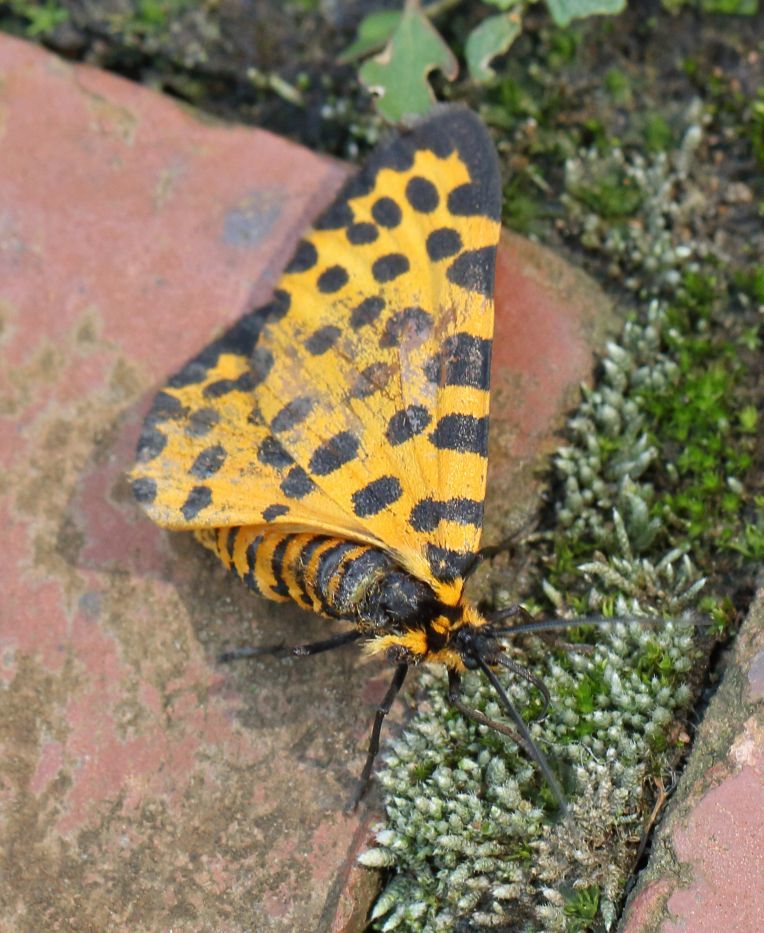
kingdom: Animalia
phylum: Arthropoda
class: Insecta
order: Lepidoptera
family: Geometridae
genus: Zerenopsis
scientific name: Zerenopsis lepida
